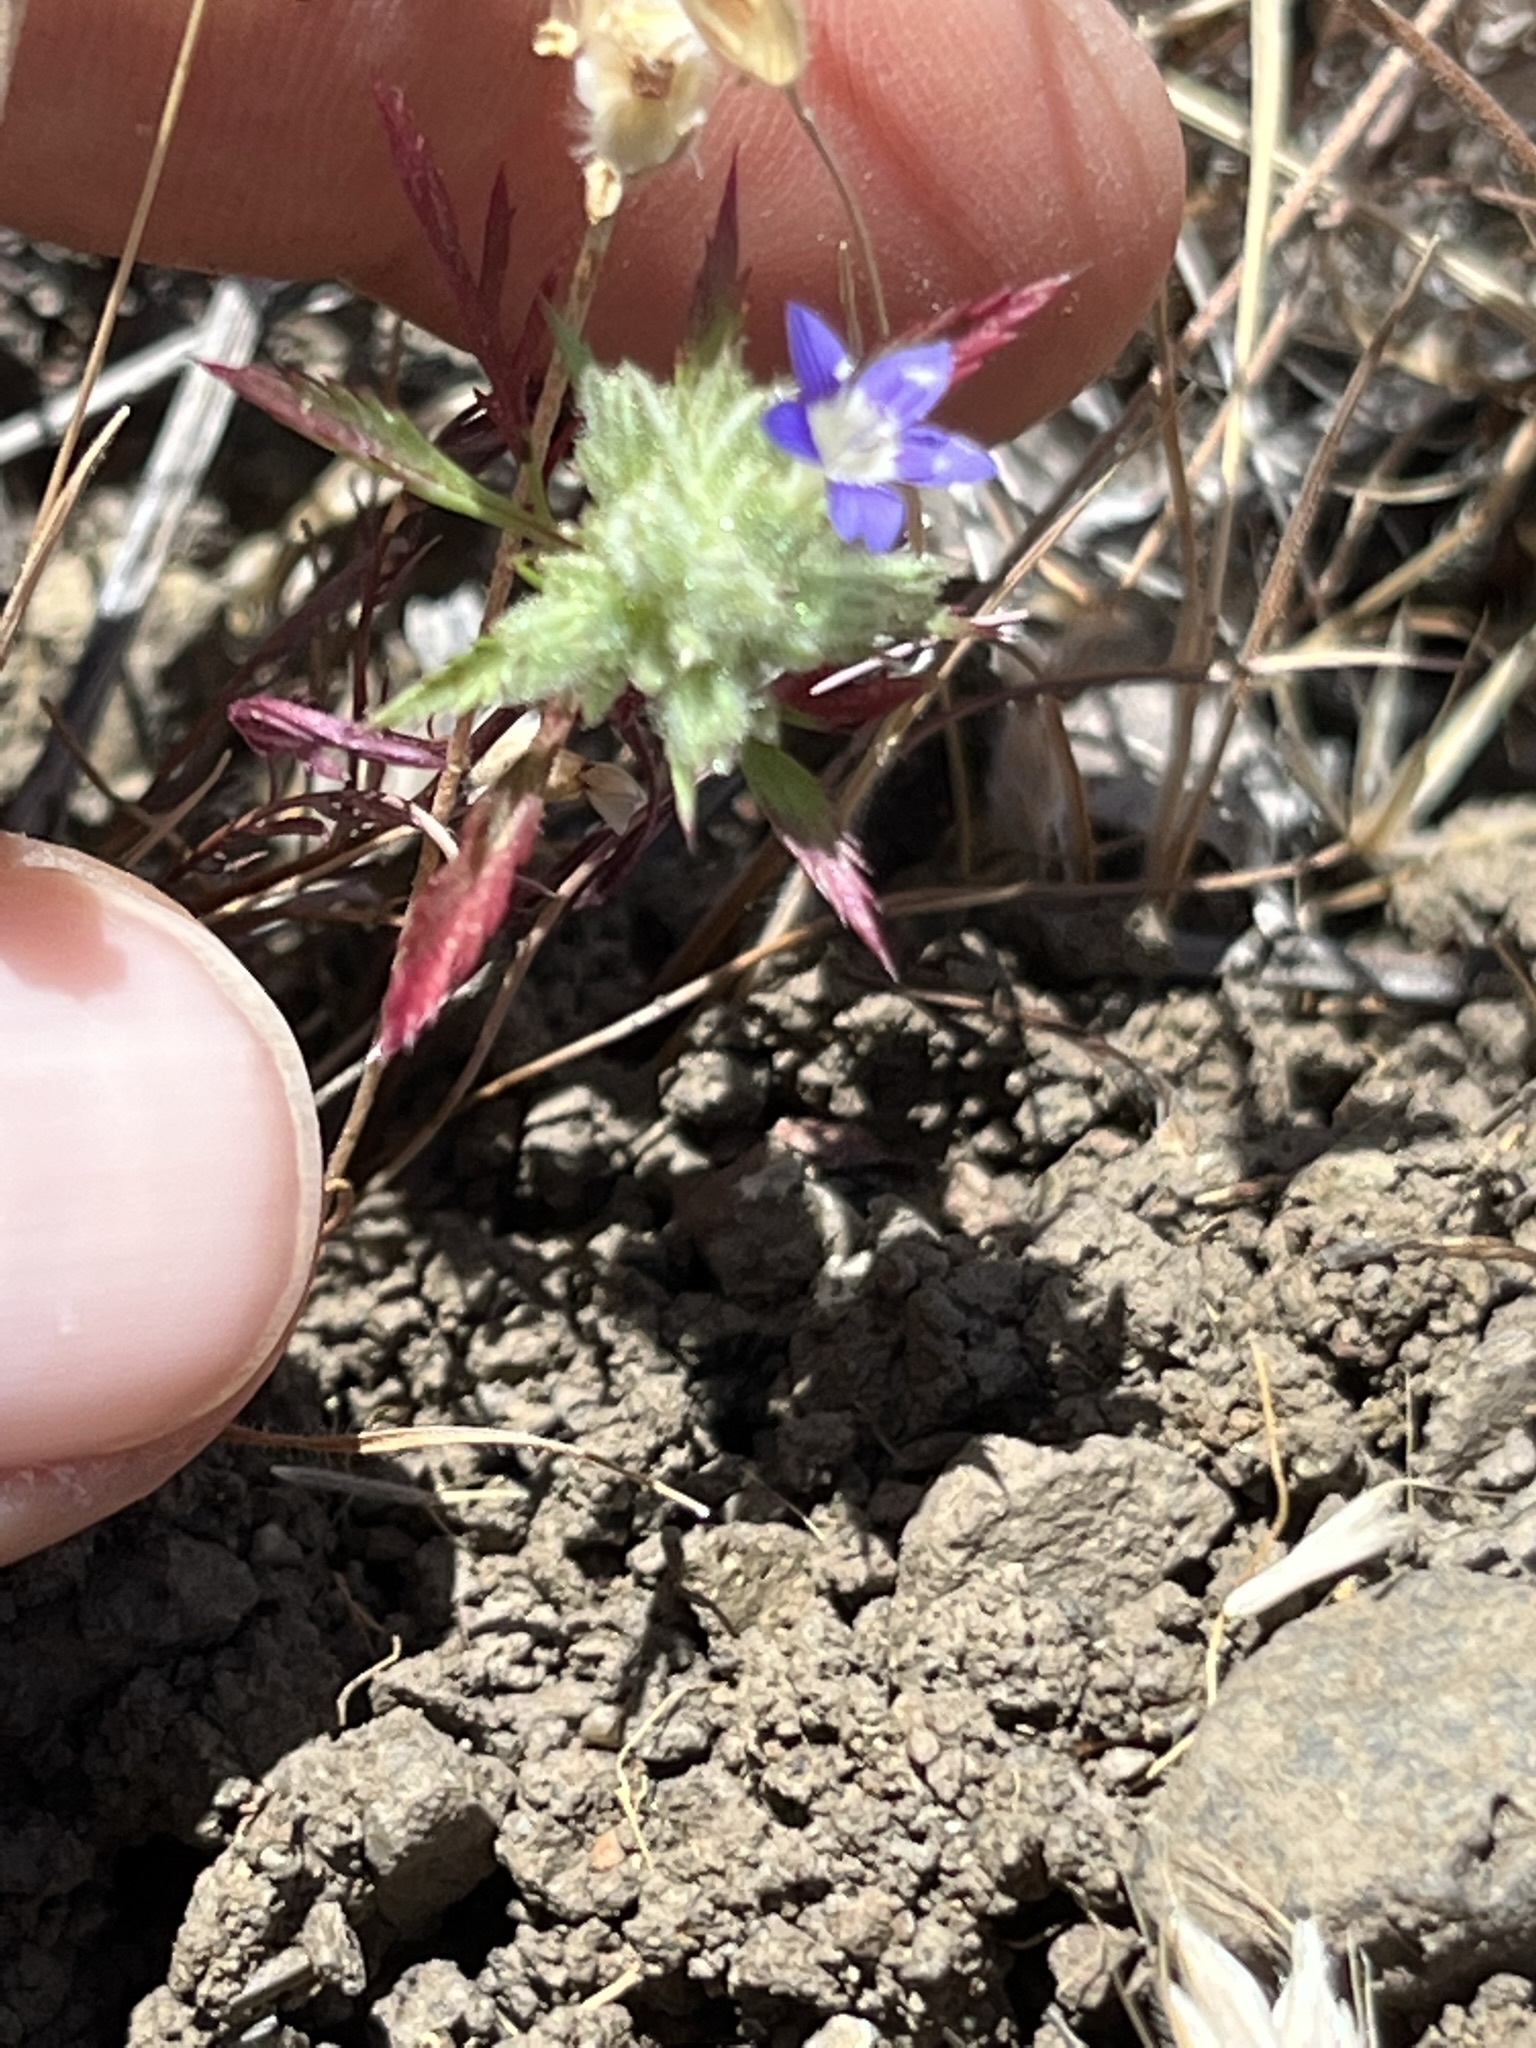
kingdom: Plantae
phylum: Tracheophyta
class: Magnoliopsida
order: Ericales
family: Polemoniaceae
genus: Navarretia
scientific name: Navarretia pubescens
